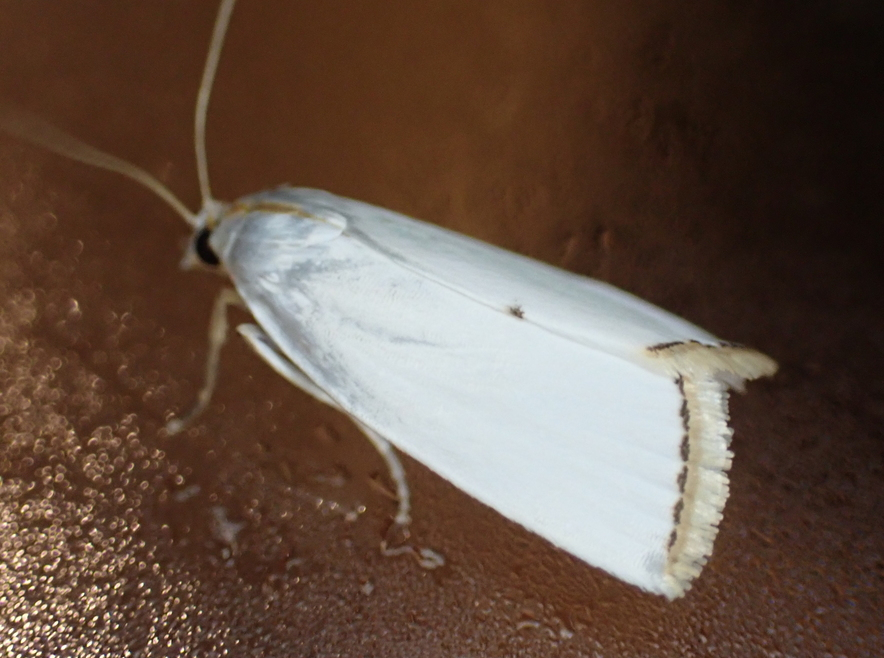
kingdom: Animalia
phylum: Arthropoda
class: Insecta
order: Lepidoptera
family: Crambidae
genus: Argyria
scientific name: Argyria nivalis
